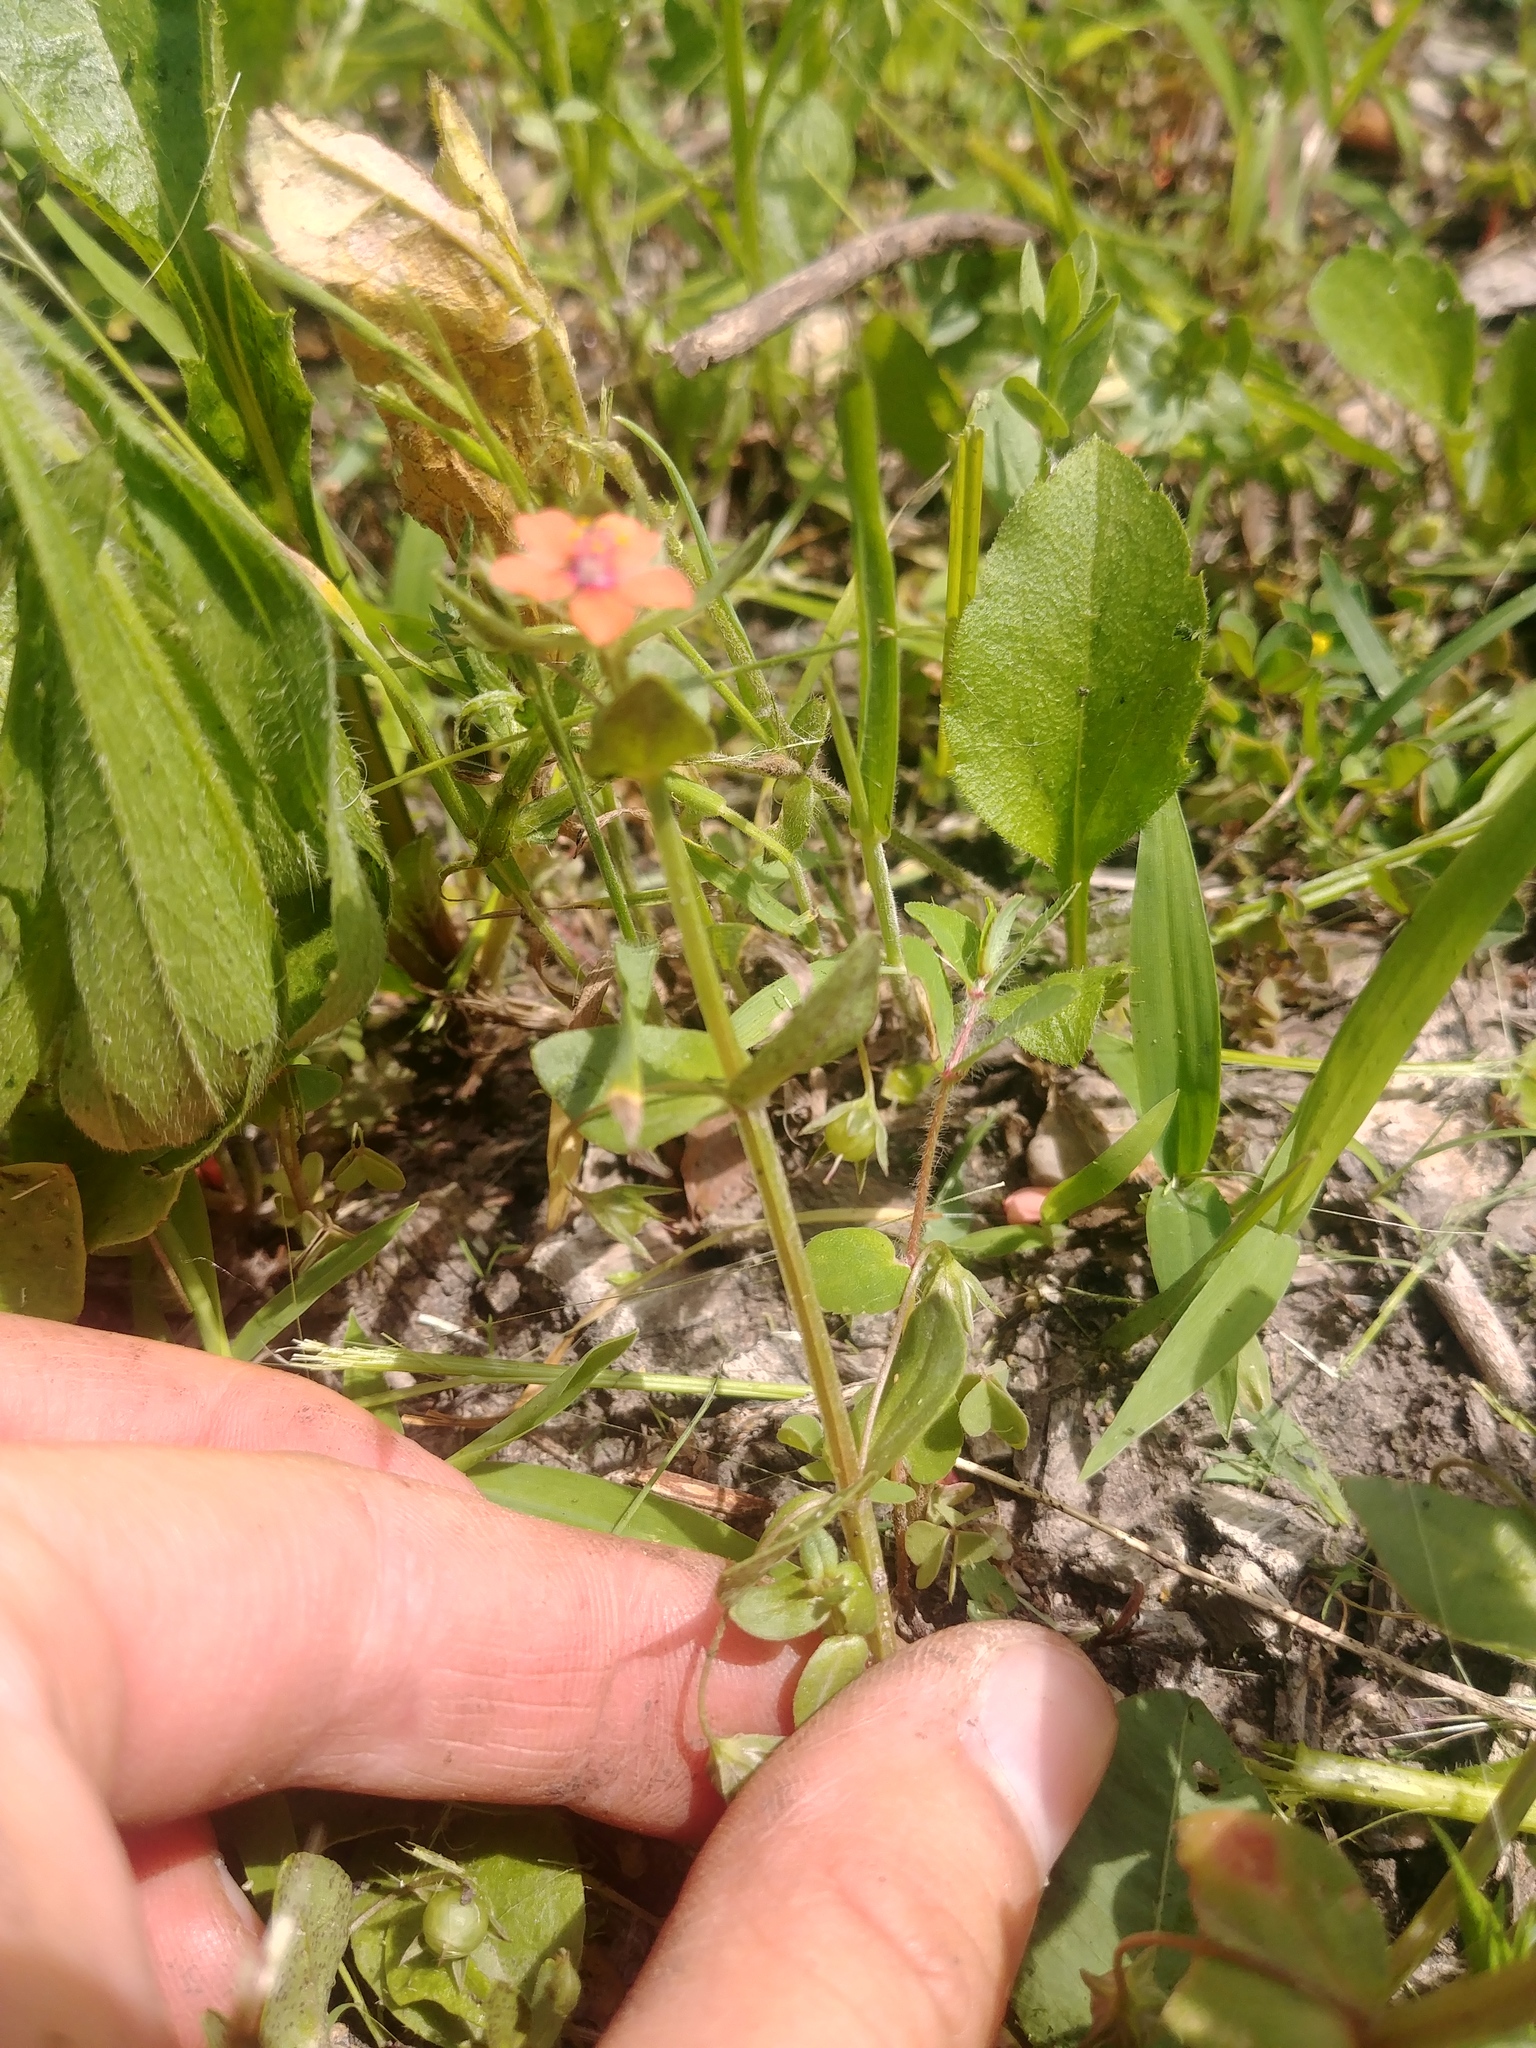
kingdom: Plantae
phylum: Tracheophyta
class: Magnoliopsida
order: Ericales
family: Primulaceae
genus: Lysimachia
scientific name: Lysimachia arvensis
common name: Scarlet pimpernel
